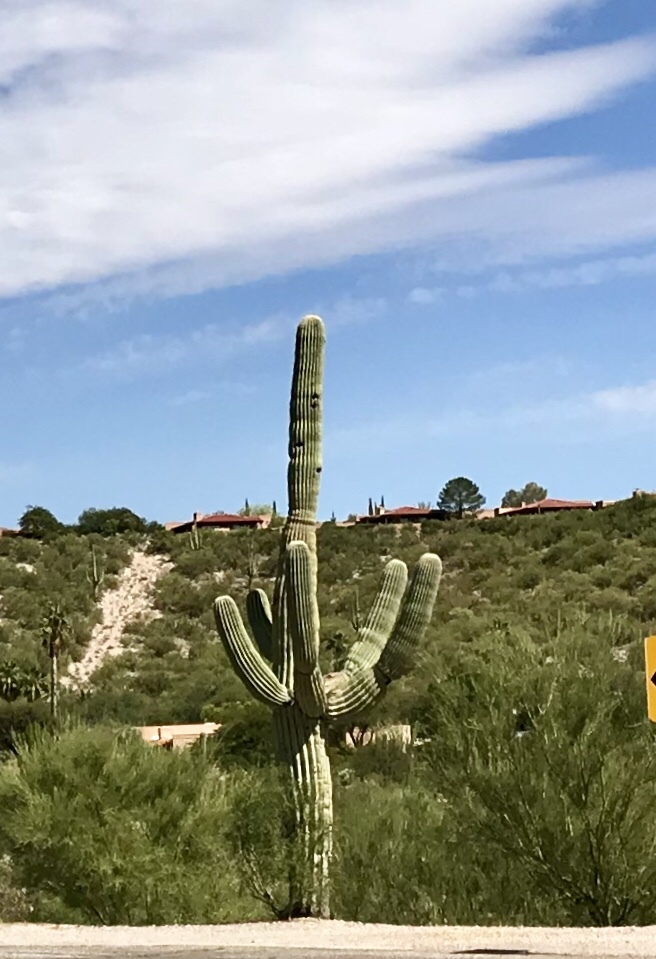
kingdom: Plantae
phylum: Tracheophyta
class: Magnoliopsida
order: Caryophyllales
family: Cactaceae
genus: Carnegiea
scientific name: Carnegiea gigantea
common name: Saguaro
